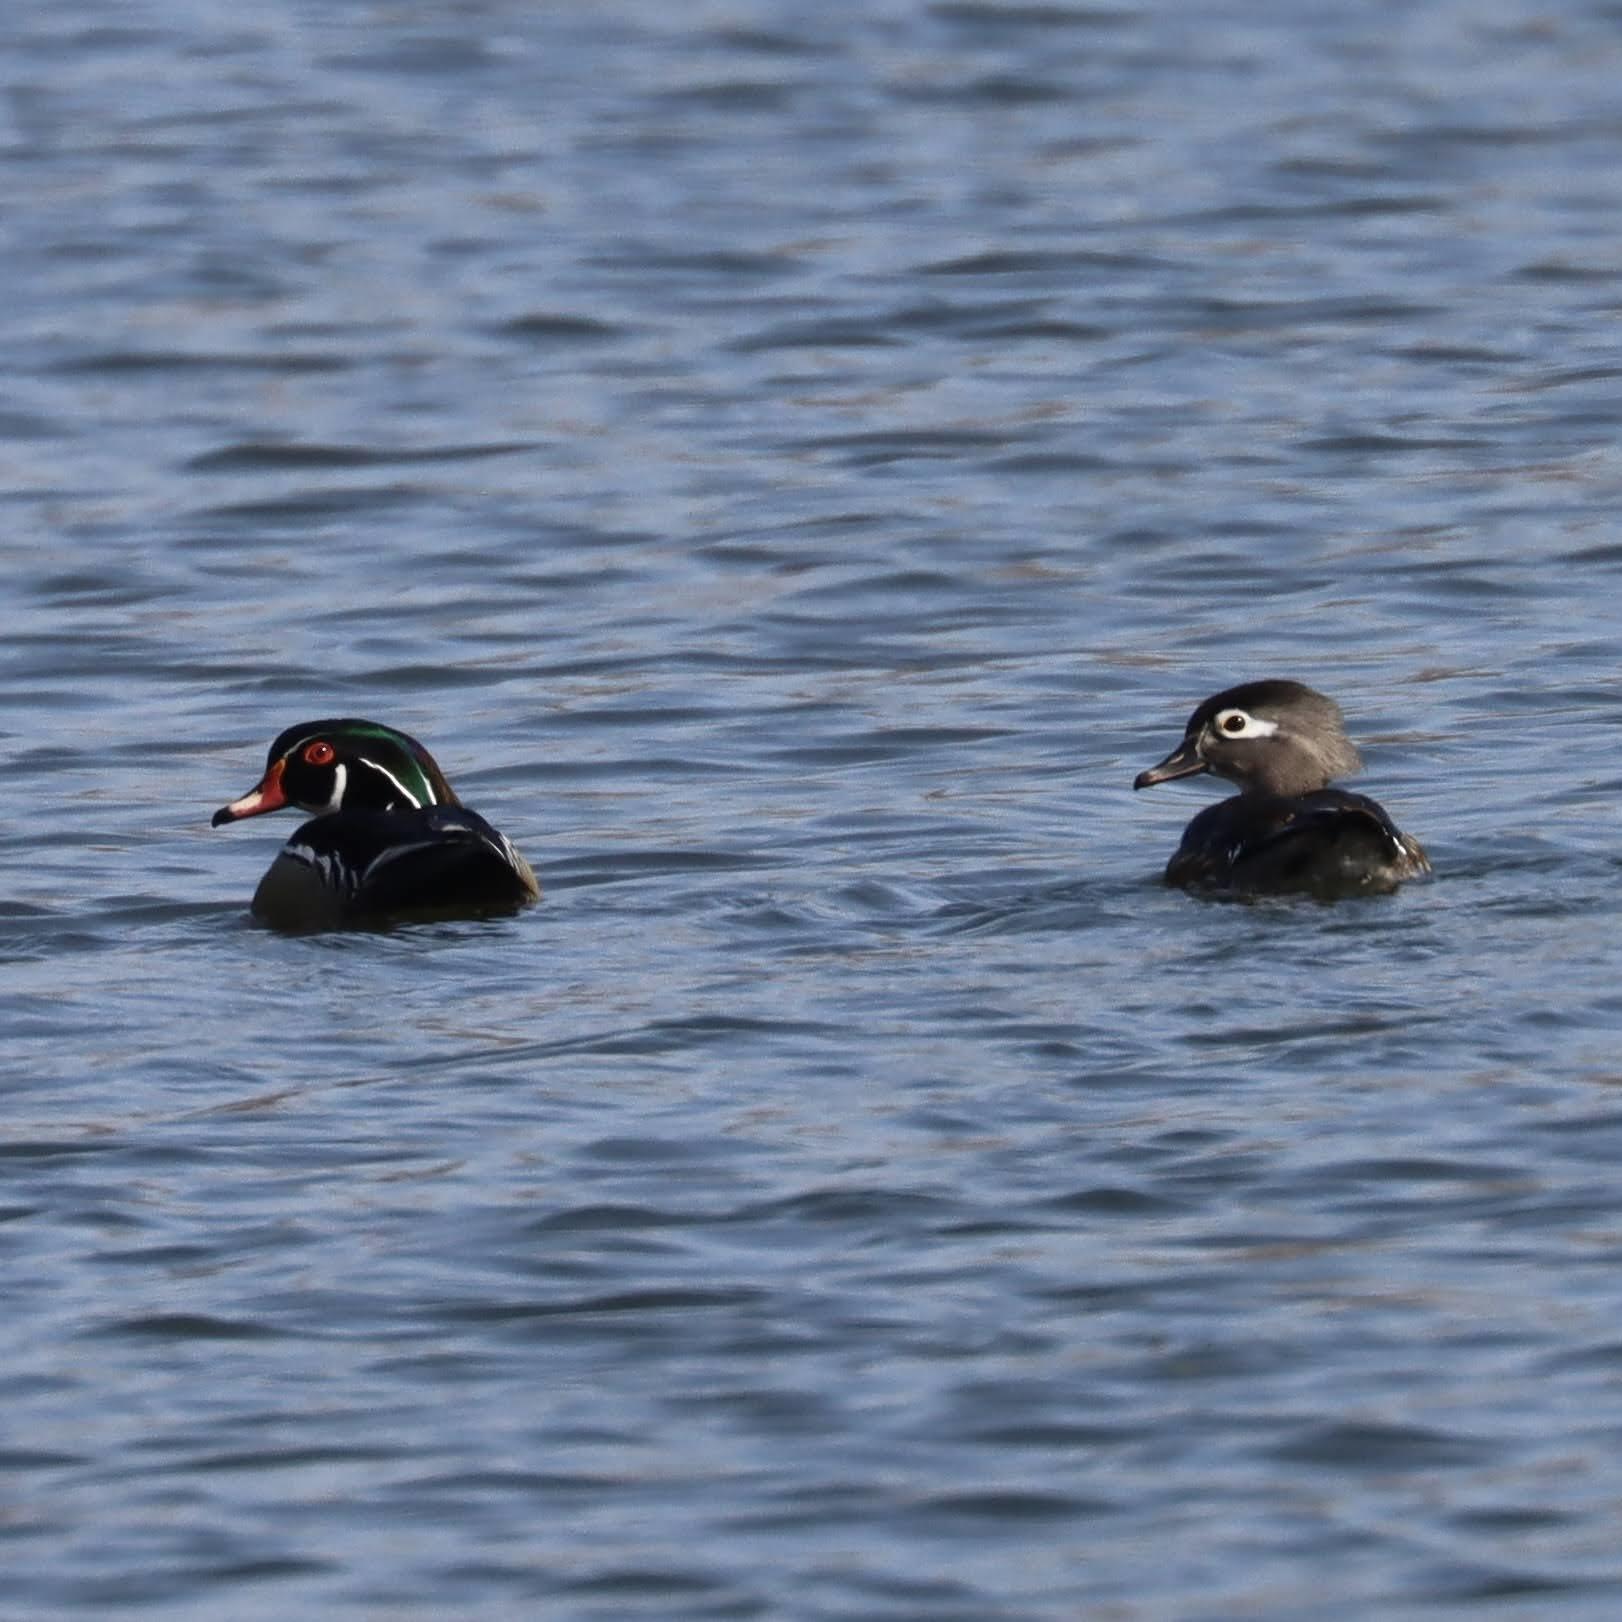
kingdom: Animalia
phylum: Chordata
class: Aves
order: Anseriformes
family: Anatidae
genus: Aix
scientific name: Aix sponsa
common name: Wood duck
